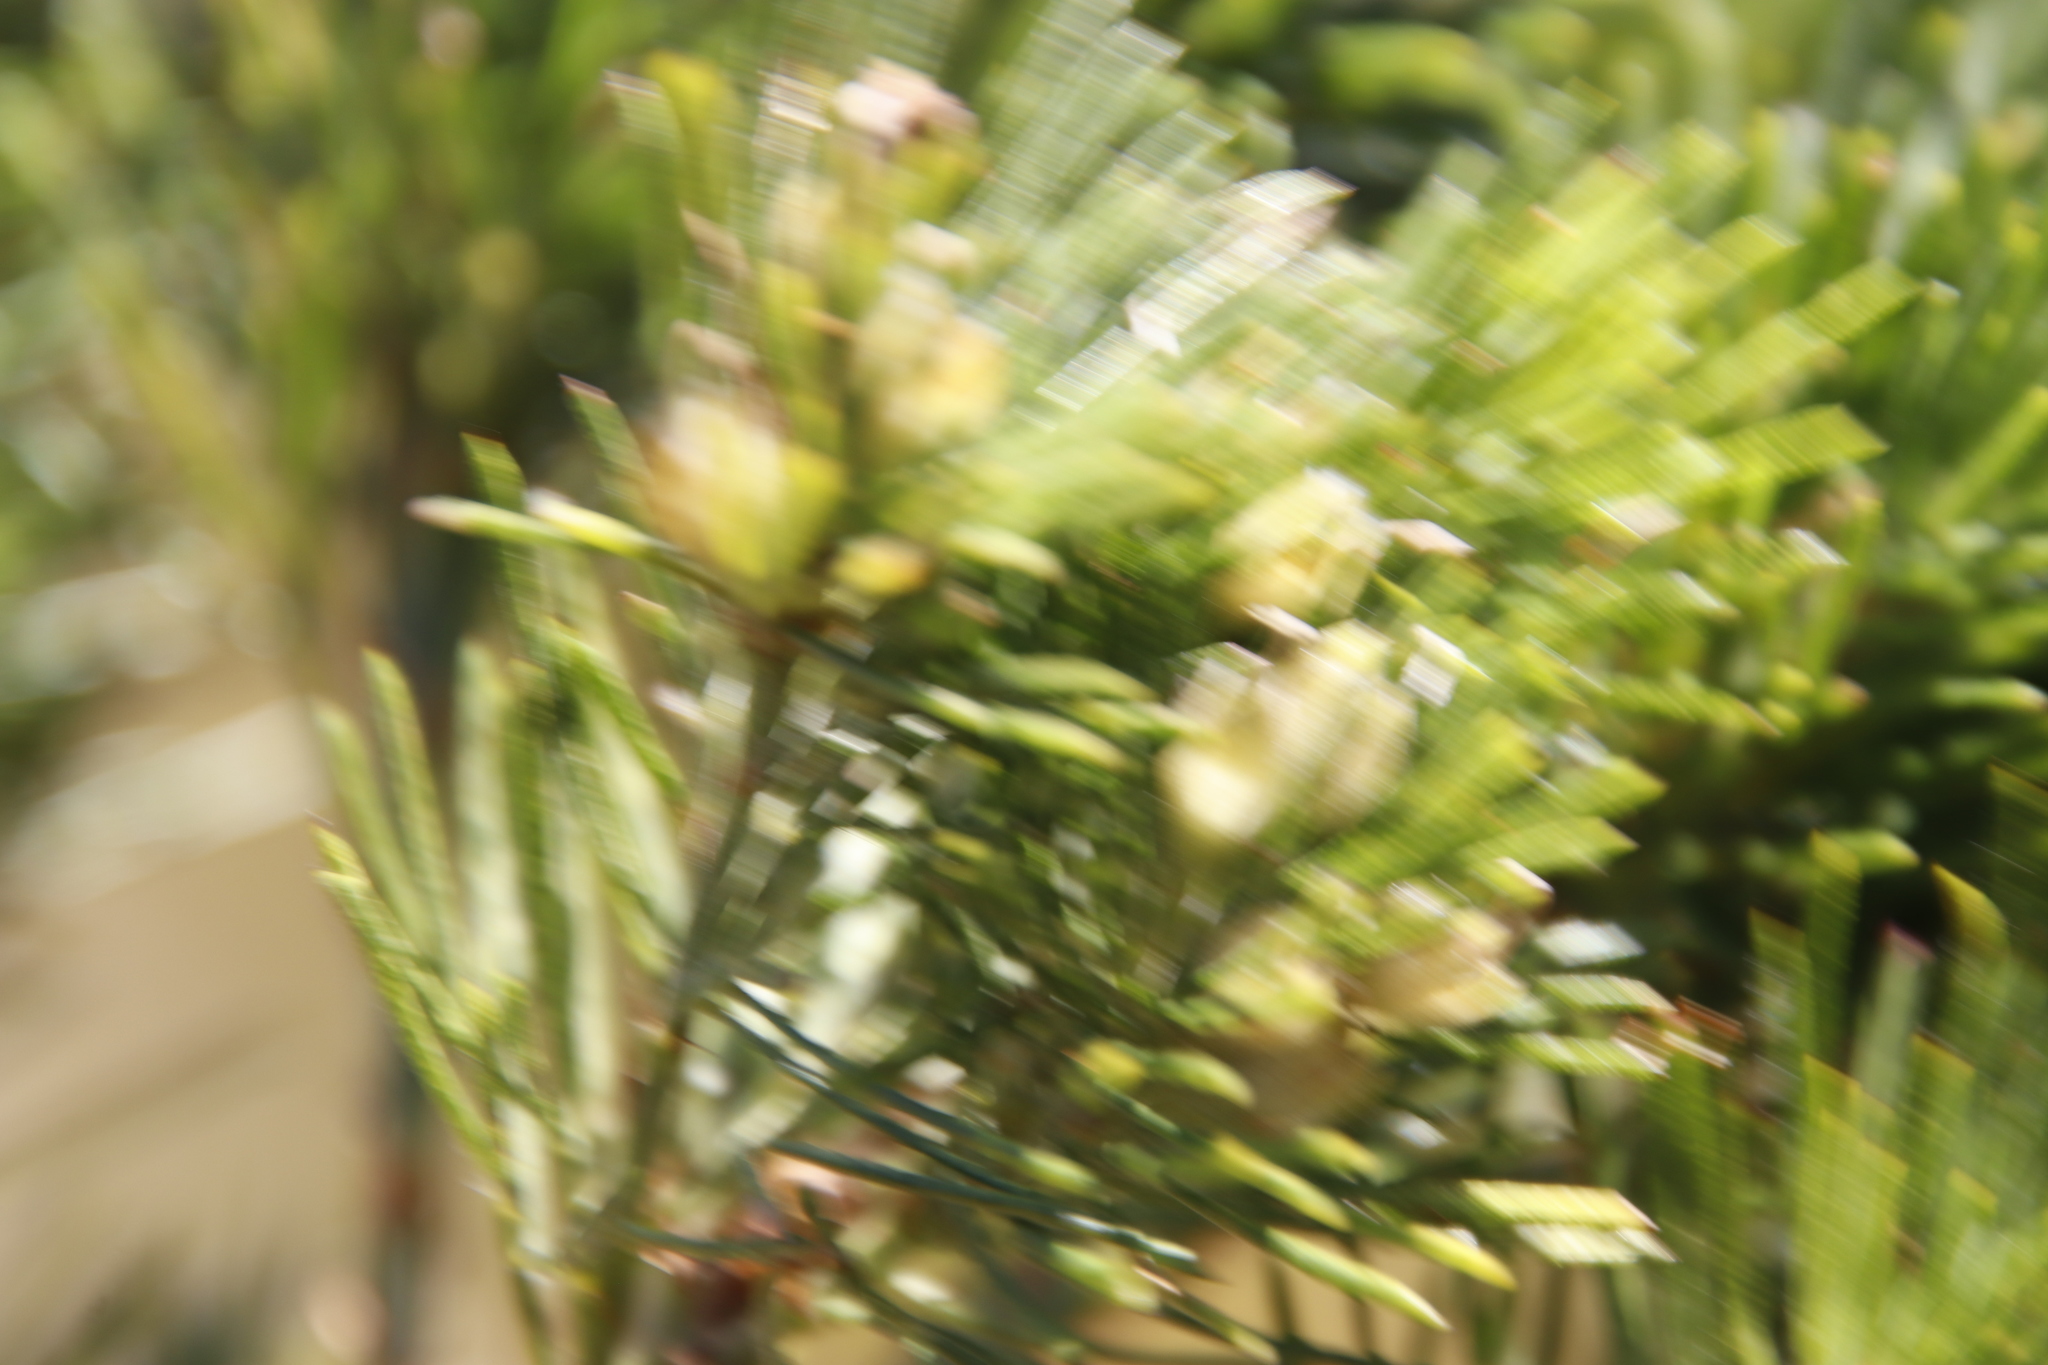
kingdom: Plantae
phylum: Tracheophyta
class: Magnoliopsida
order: Fabales
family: Fabaceae
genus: Psoralea
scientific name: Psoralea pinnata
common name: African scurfpea
